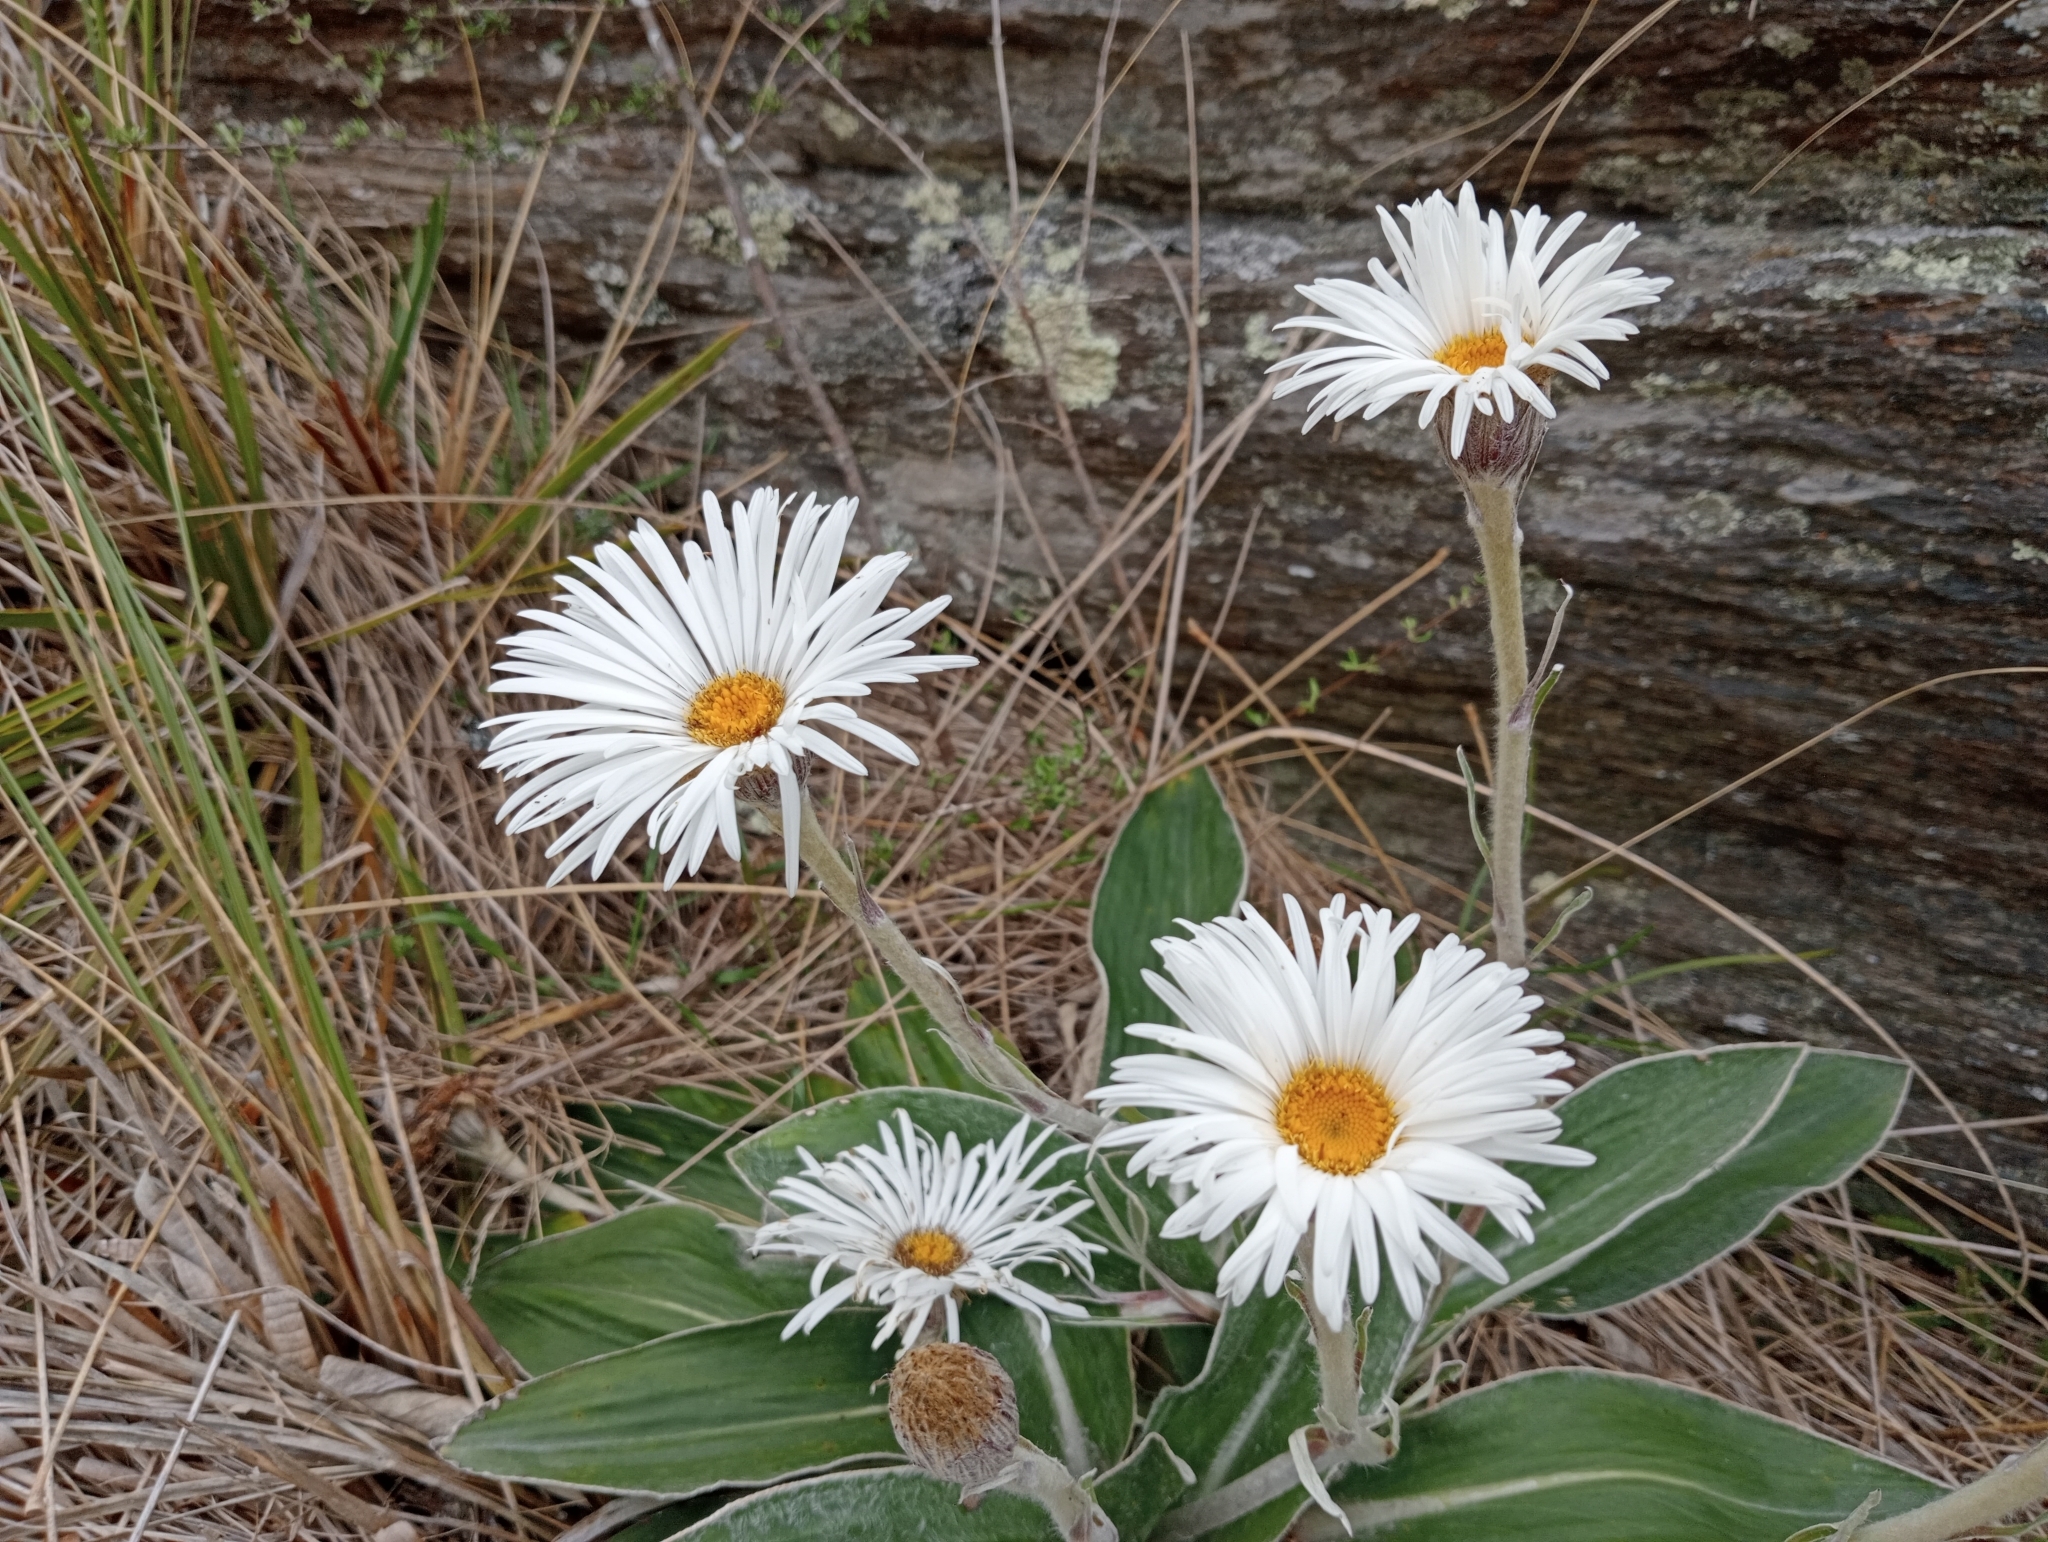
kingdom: Plantae
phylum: Tracheophyta
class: Magnoliopsida
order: Asterales
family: Asteraceae
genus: Celmisia
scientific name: Celmisia hookeri
